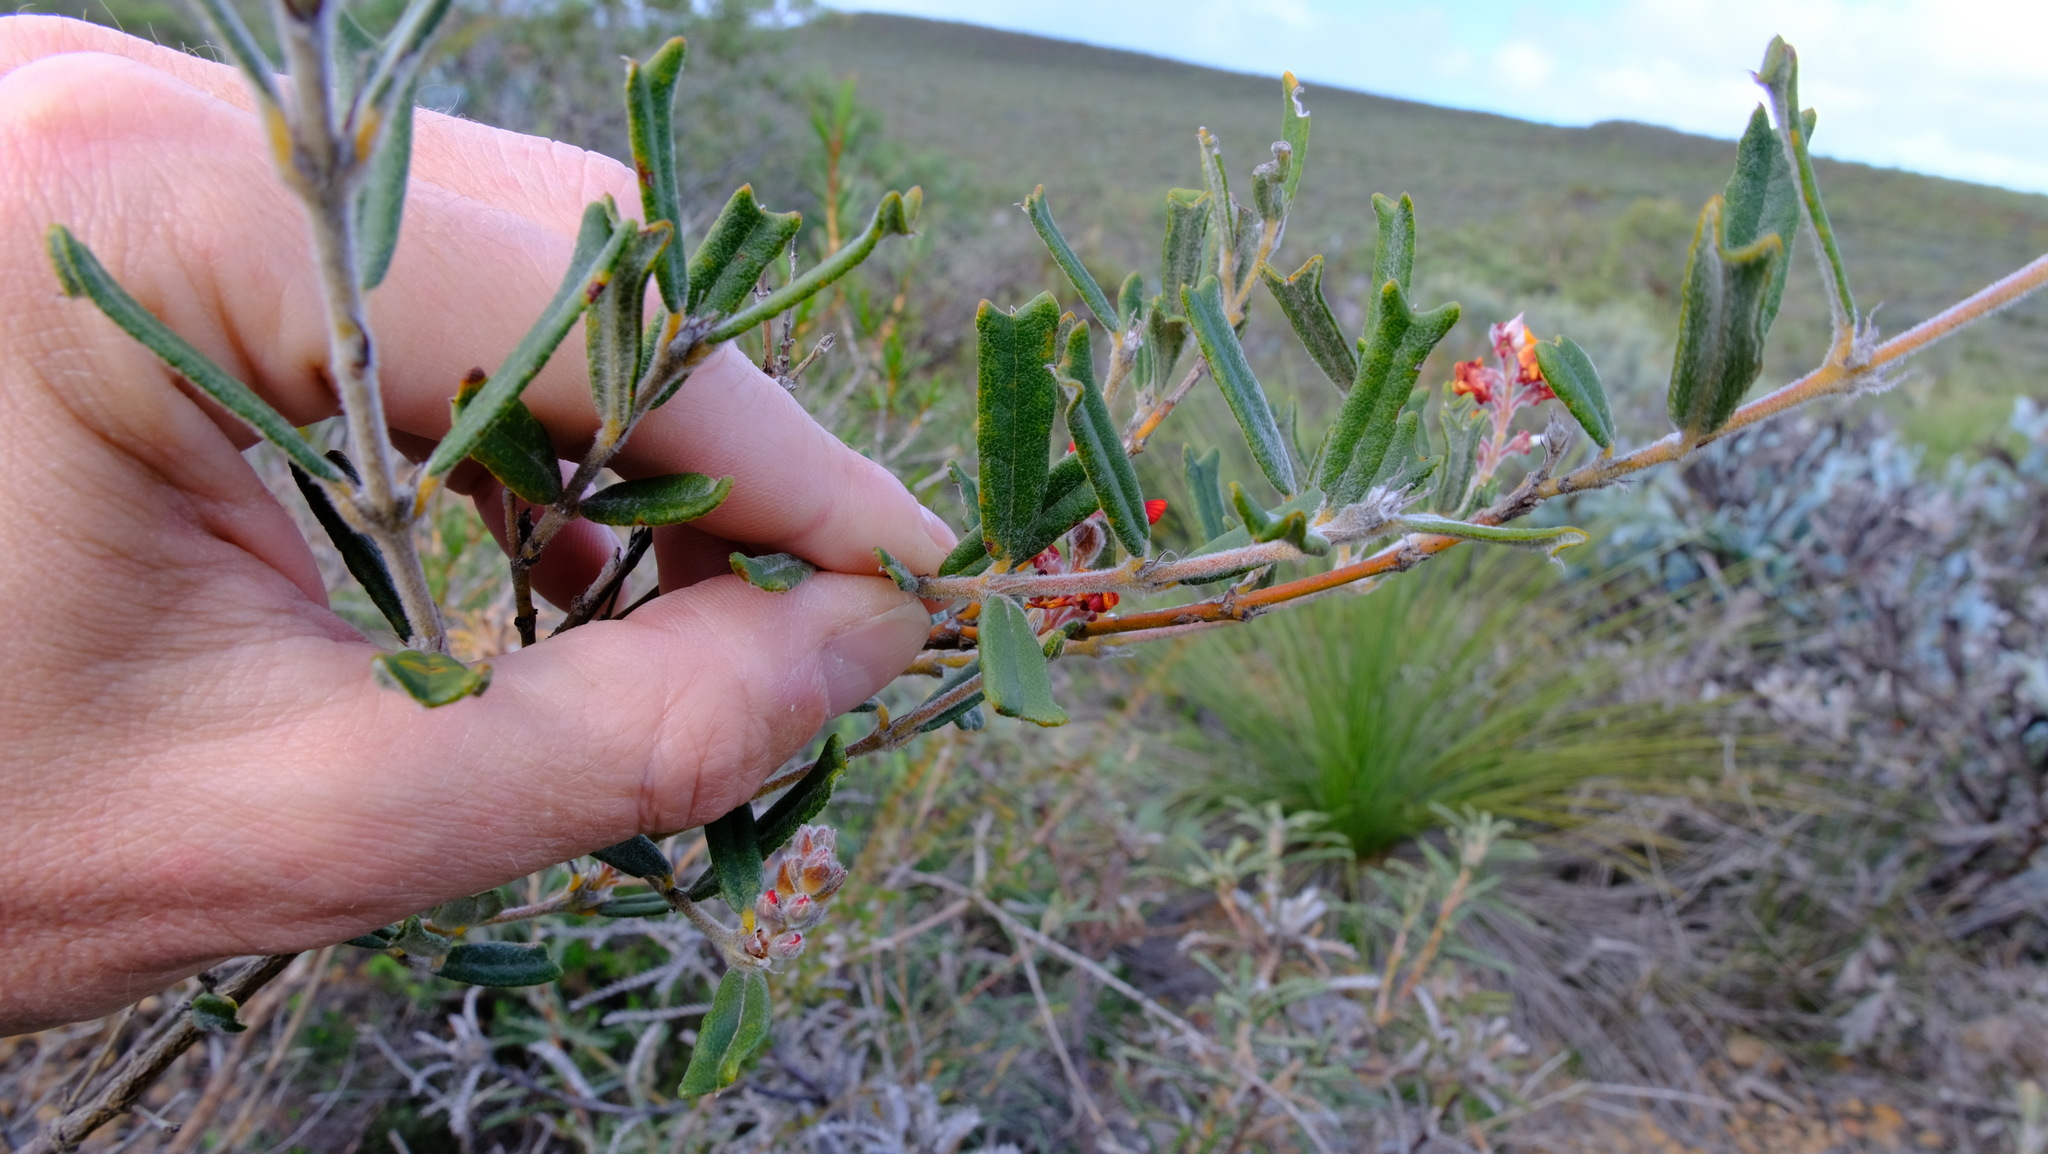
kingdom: Plantae
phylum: Tracheophyta
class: Magnoliopsida
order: Fabales
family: Fabaceae
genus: Gastrolobium
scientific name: Gastrolobium polystachyum
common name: Hill river poison
